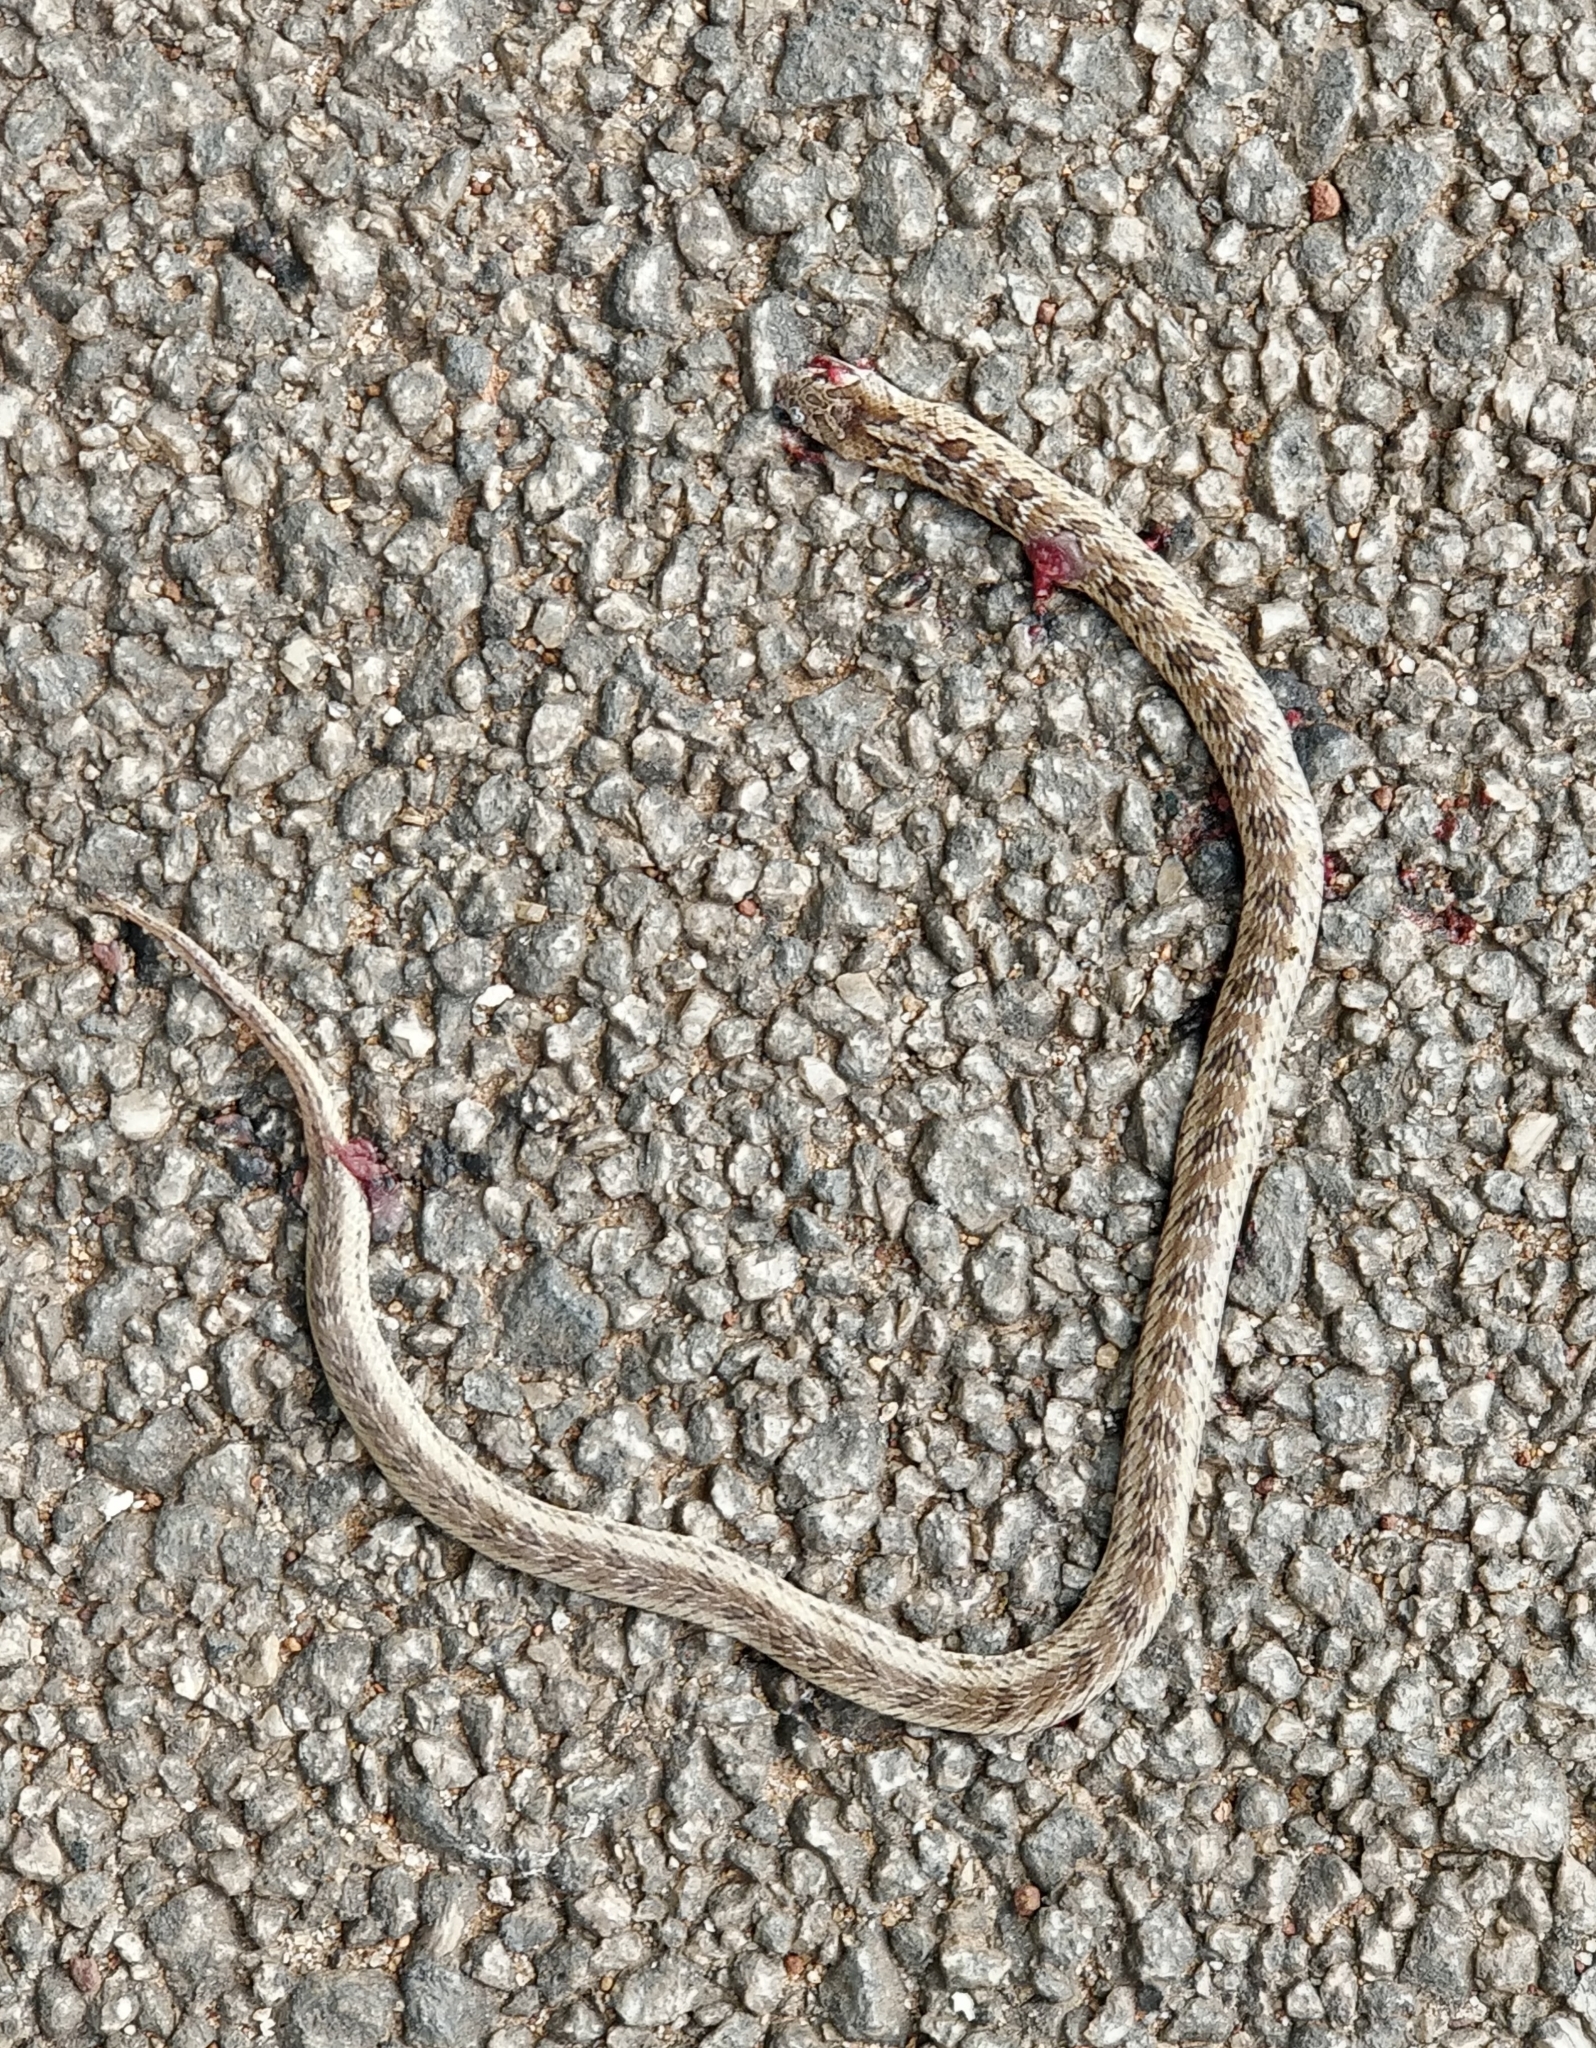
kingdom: Animalia
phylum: Chordata
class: Squamata
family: Colubridae
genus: Oligodon
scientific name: Oligodon taeniolatus
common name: Loos snake
